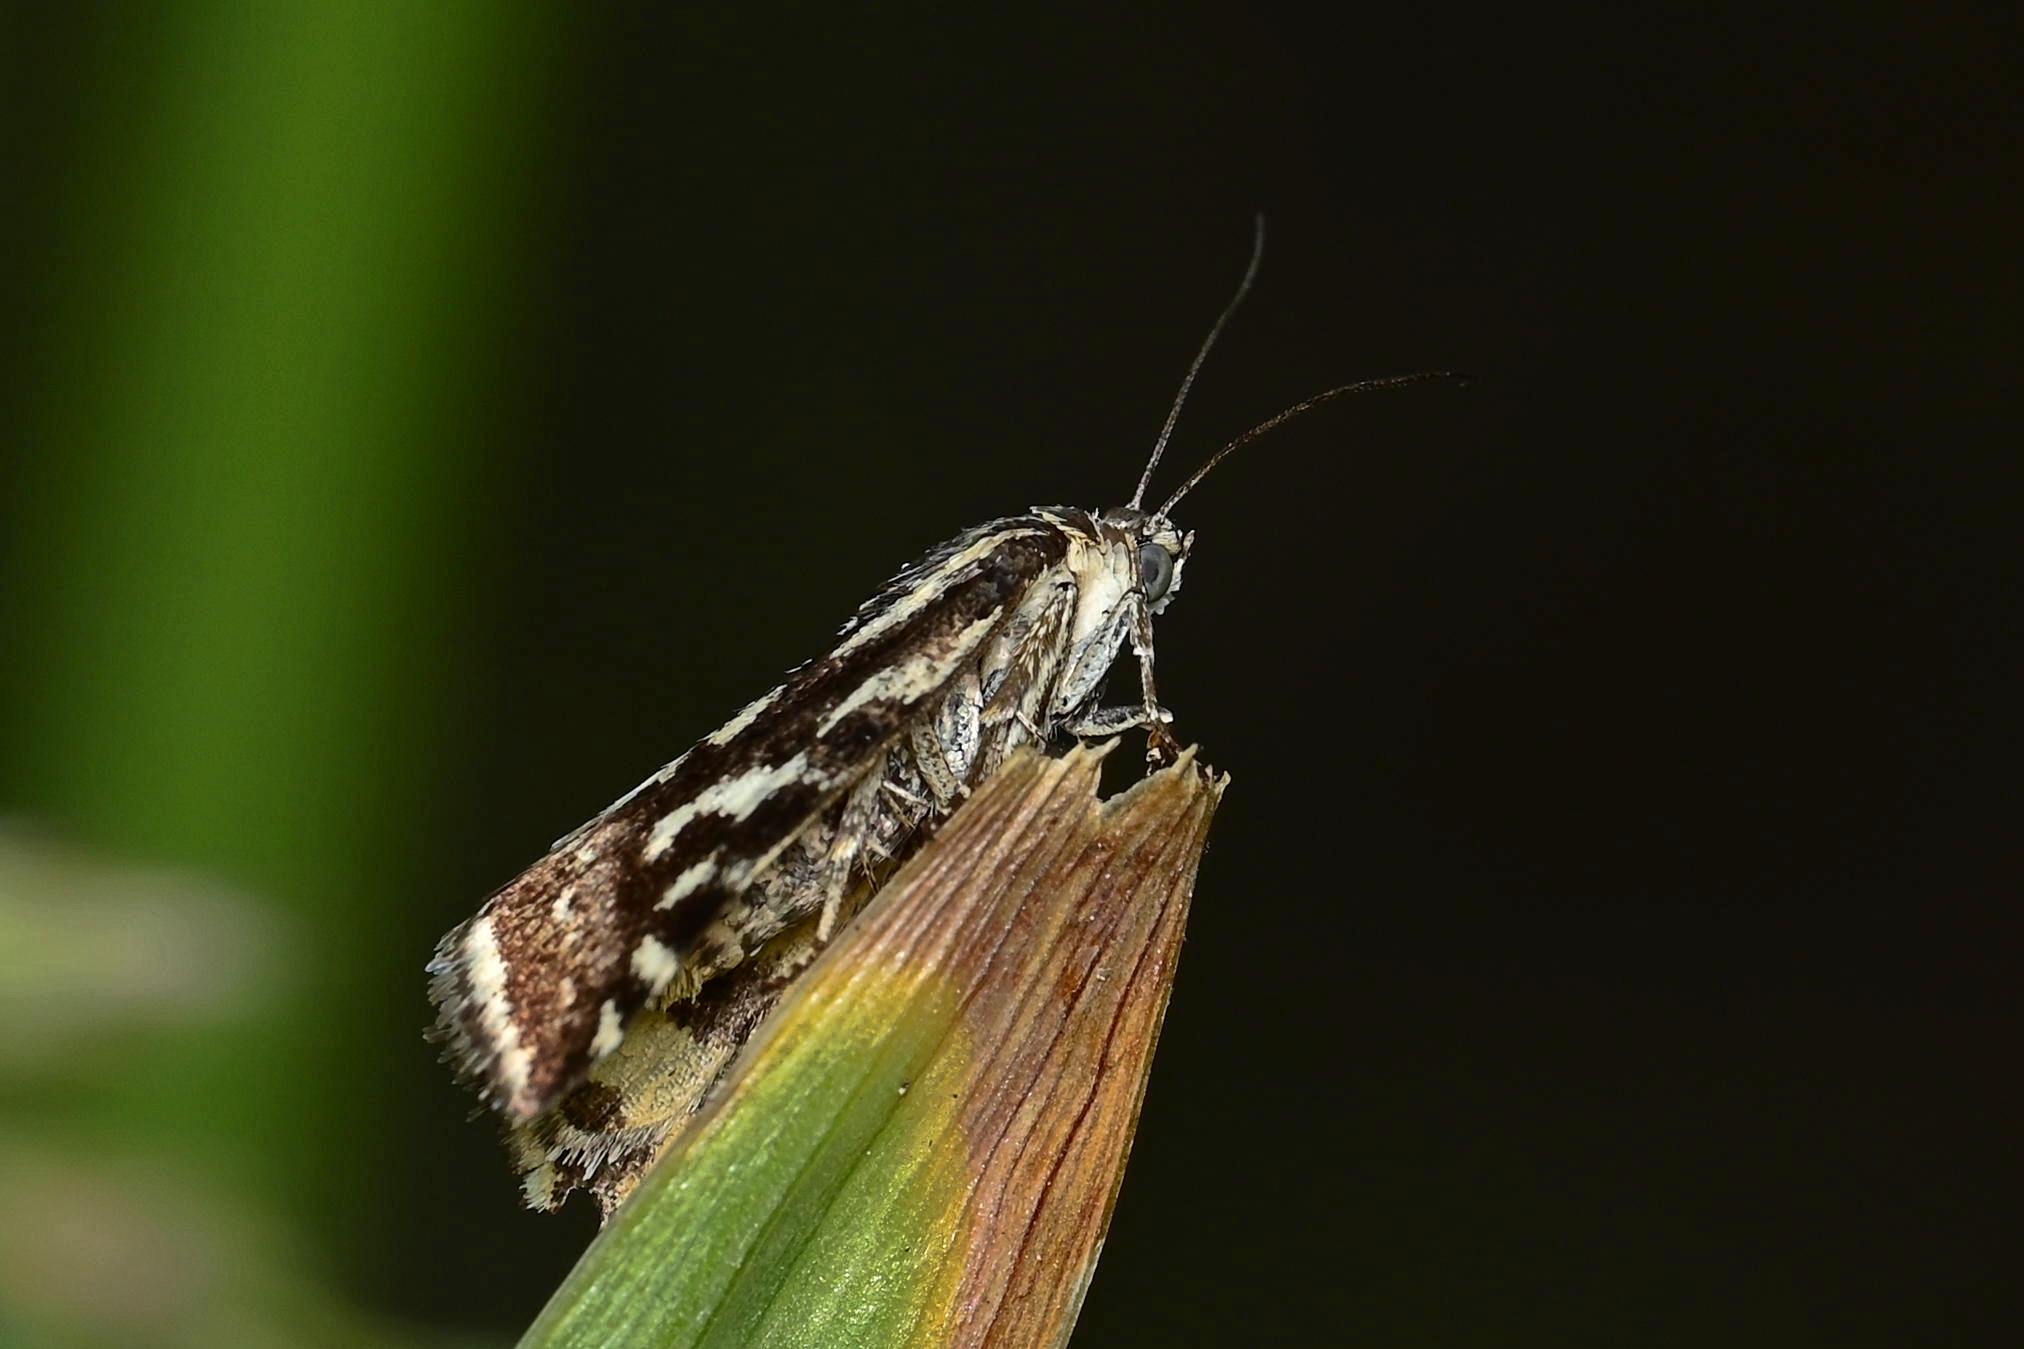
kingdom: Animalia
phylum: Arthropoda
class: Insecta
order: Lepidoptera
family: Noctuidae
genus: Acontia
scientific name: Acontia trabealis
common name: Spotted sulphur
